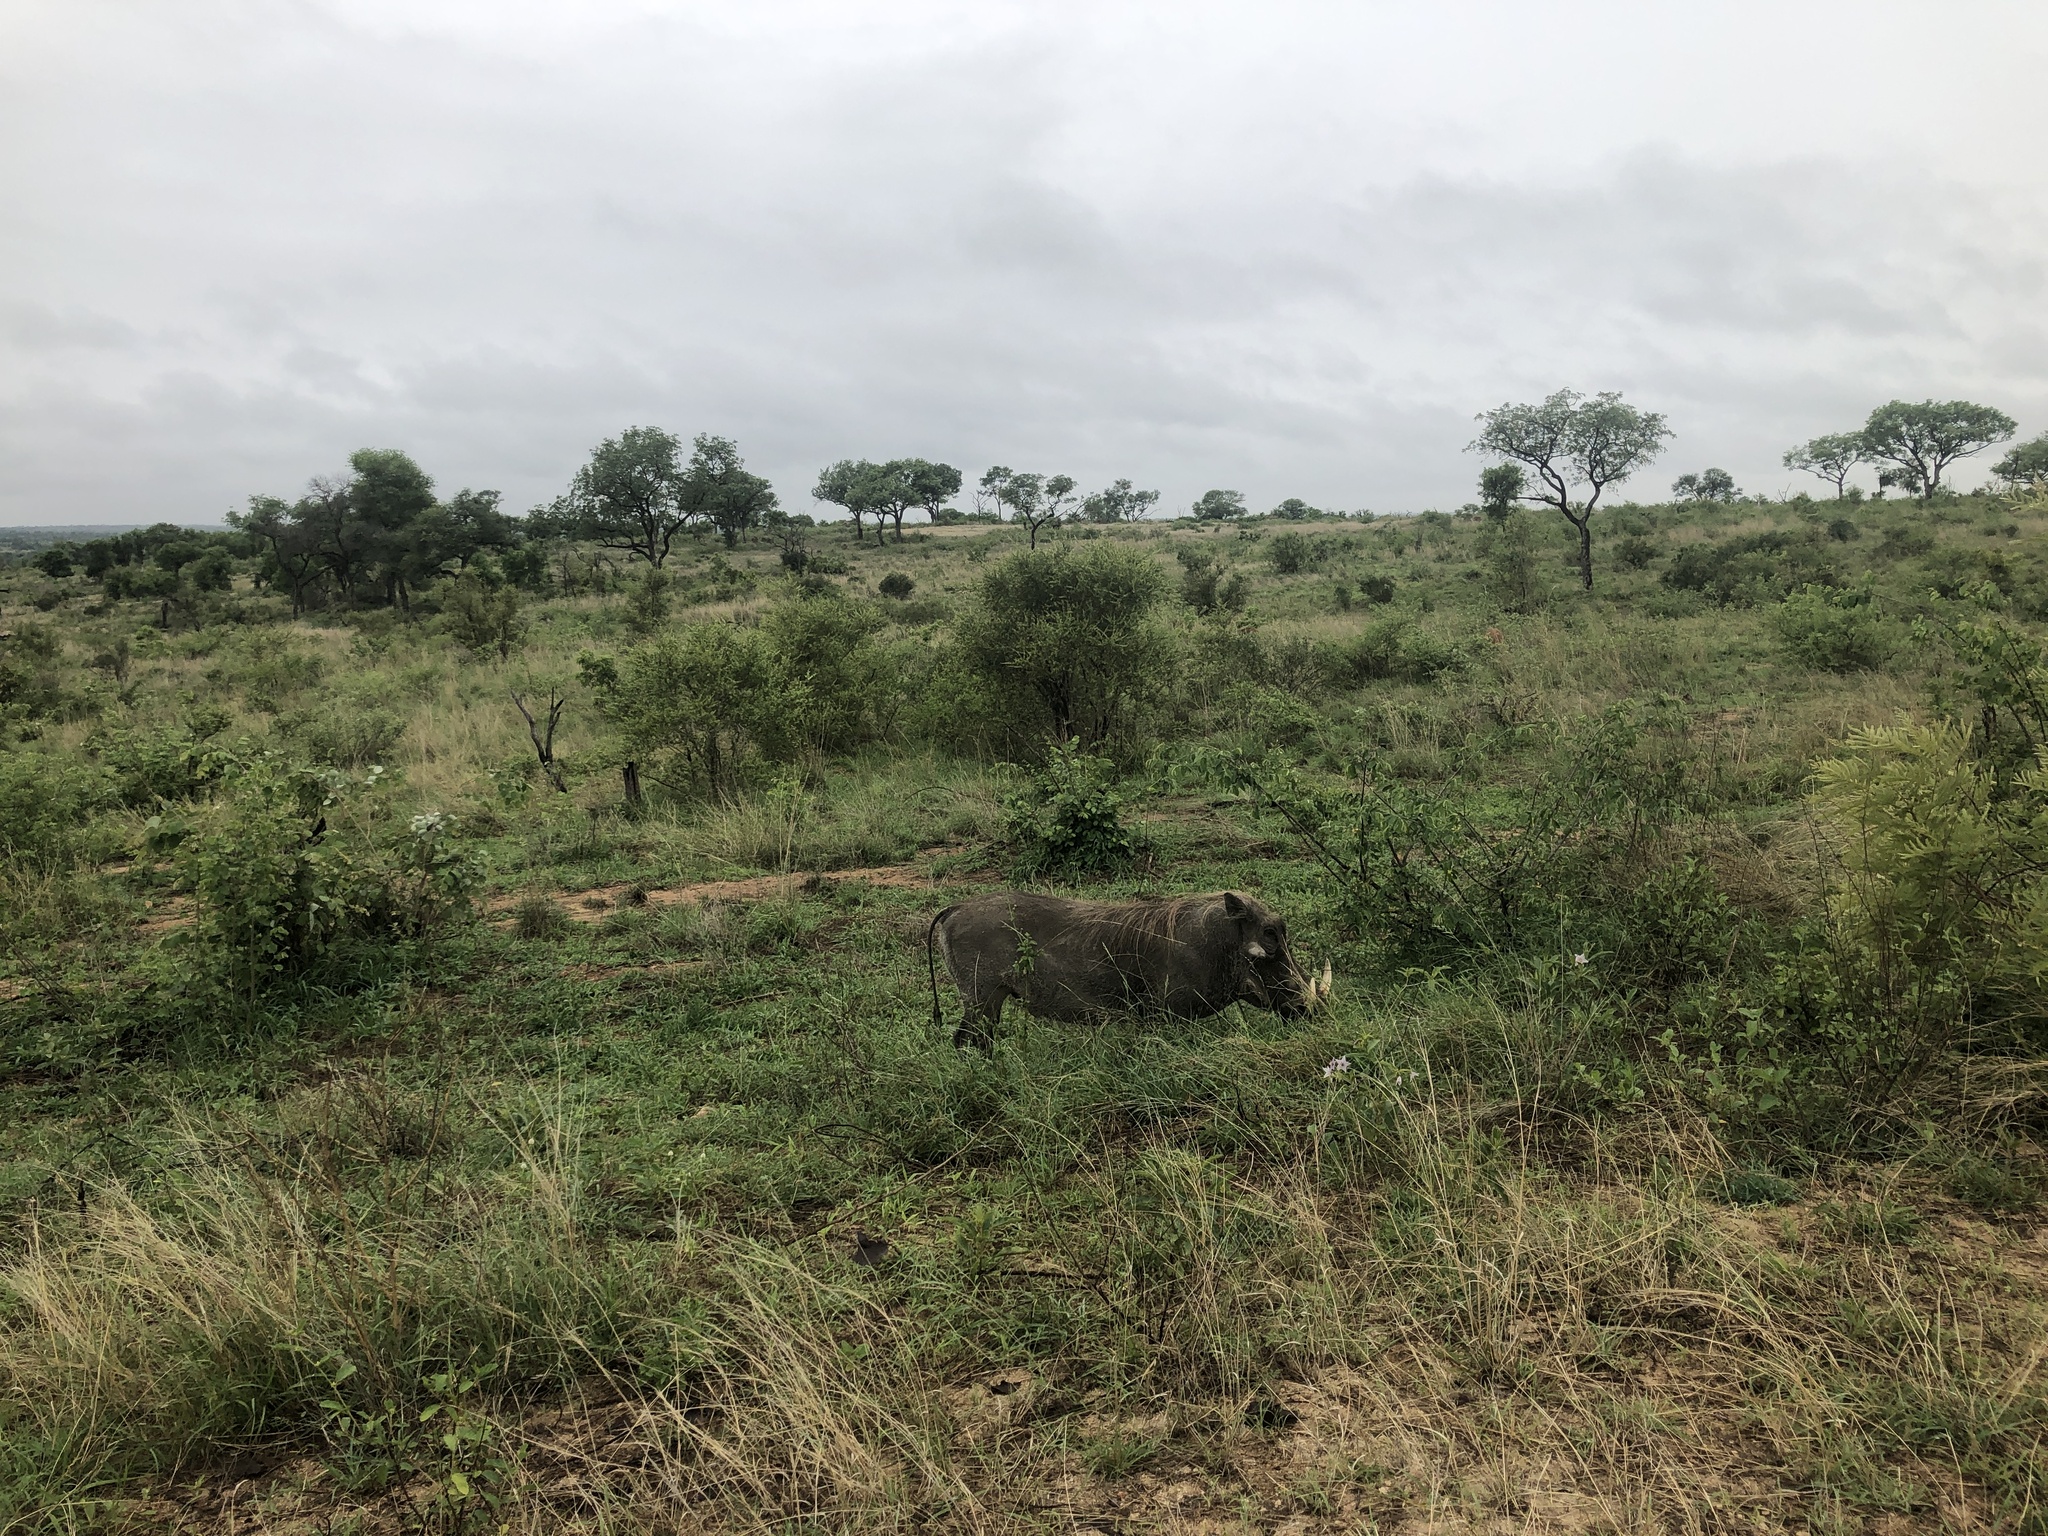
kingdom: Animalia
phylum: Chordata
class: Mammalia
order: Artiodactyla
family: Suidae
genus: Phacochoerus
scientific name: Phacochoerus africanus
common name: Common warthog
